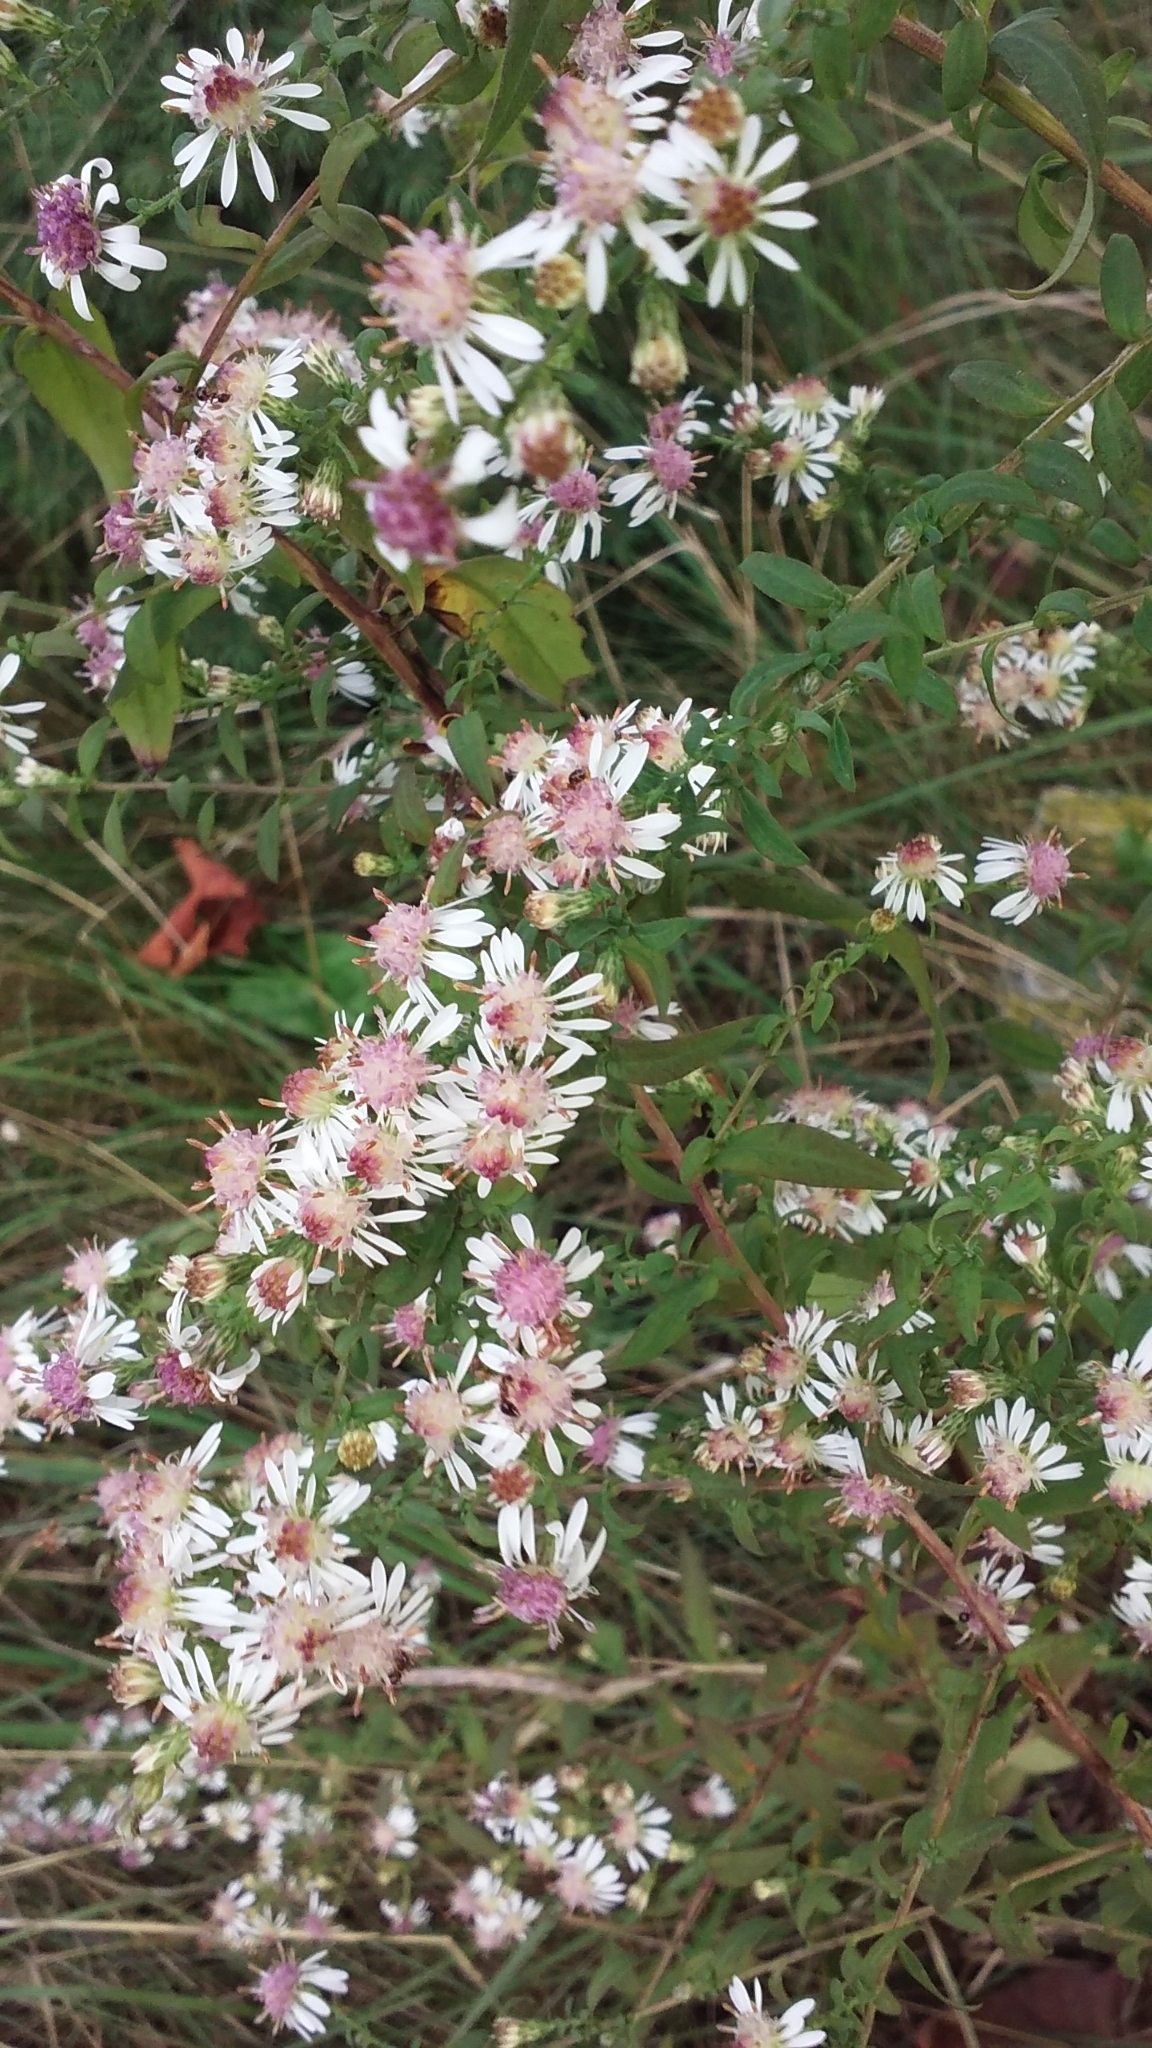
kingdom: Plantae
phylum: Tracheophyta
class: Magnoliopsida
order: Asterales
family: Asteraceae
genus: Symphyotrichum
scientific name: Symphyotrichum lateriflorum
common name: Calico aster
